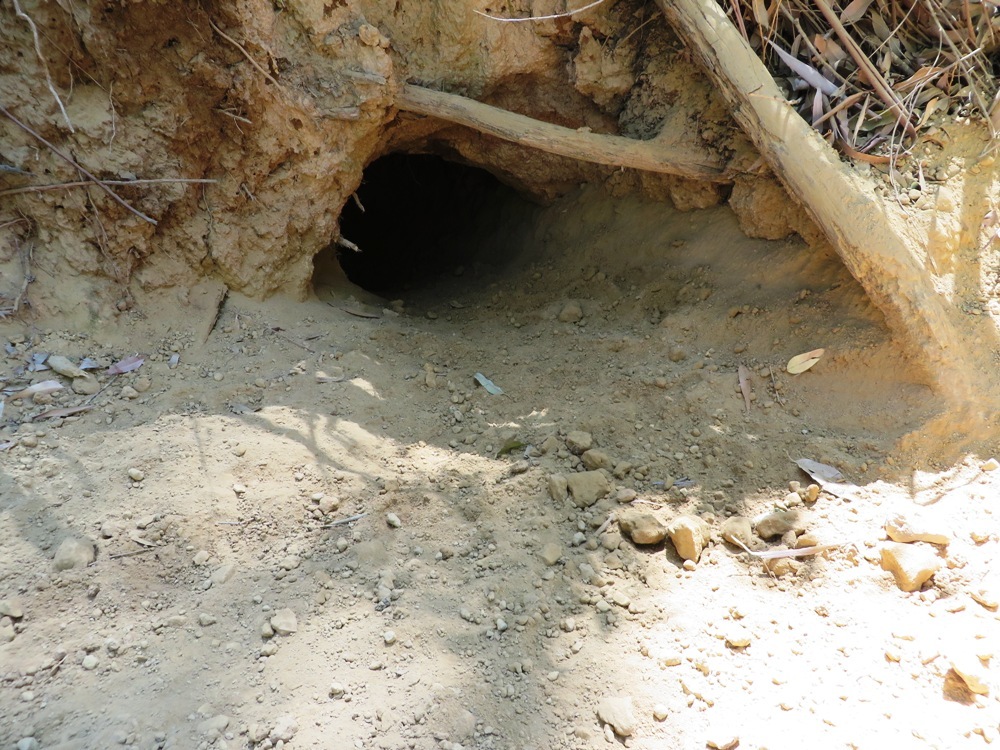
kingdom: Animalia
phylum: Chordata
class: Mammalia
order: Rodentia
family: Hystricidae
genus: Hystrix
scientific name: Hystrix africaeaustralis
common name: Cape porcupine
